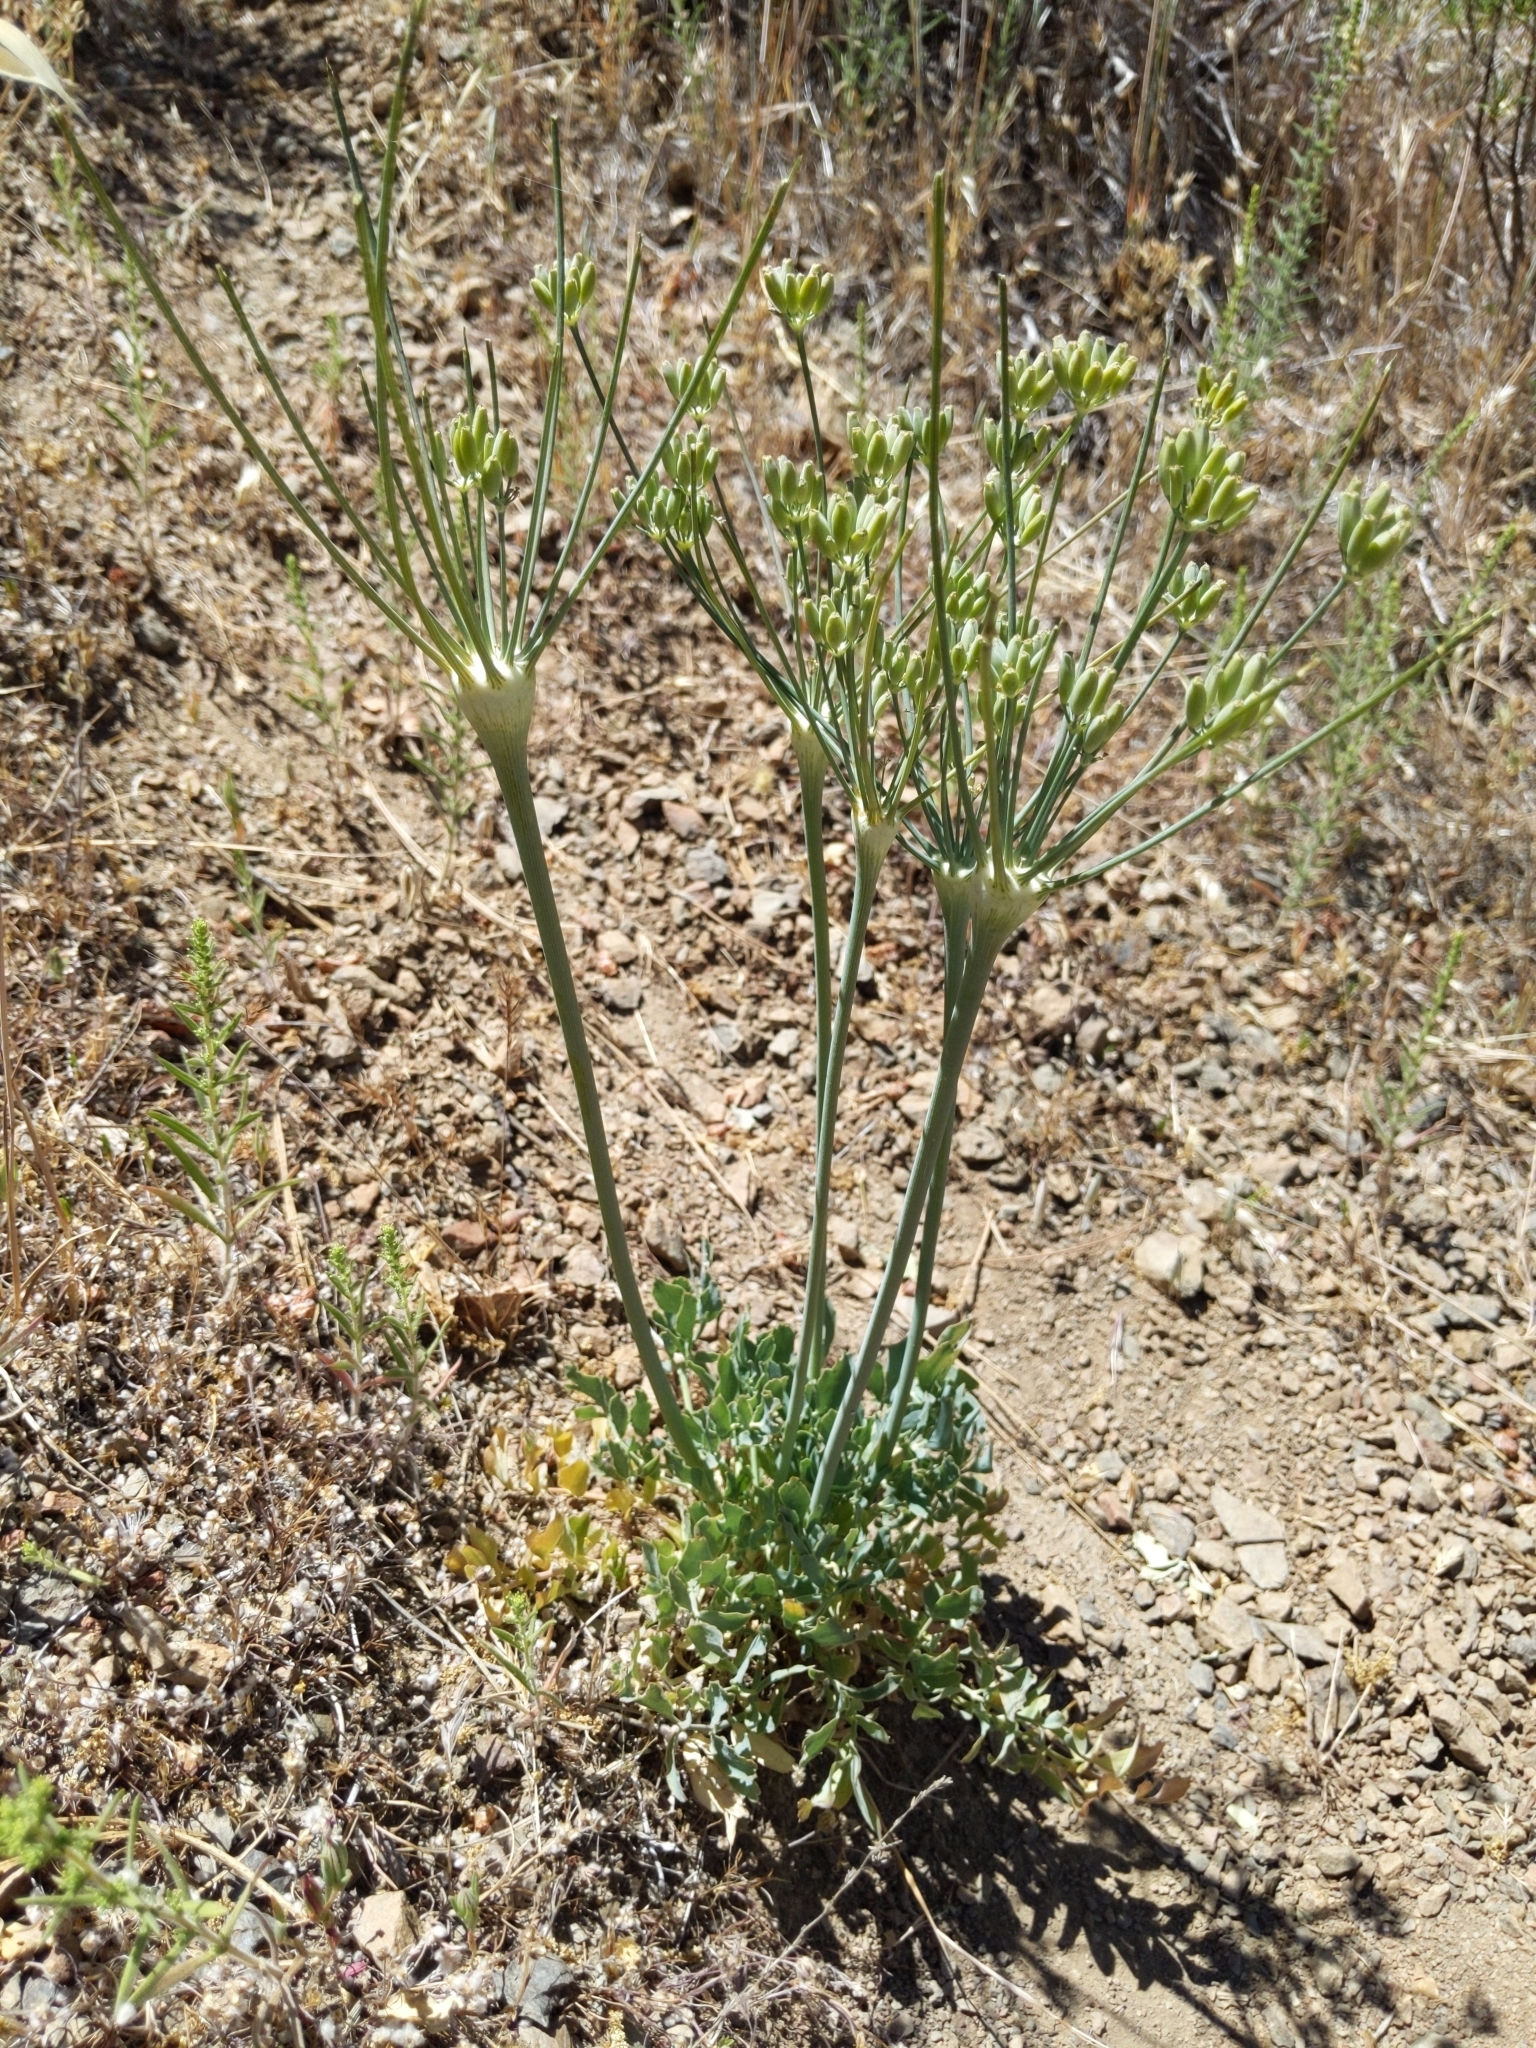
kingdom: Plantae
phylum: Tracheophyta
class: Magnoliopsida
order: Apiales
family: Apiaceae
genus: Lomatium
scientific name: Lomatium nudicaule
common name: Pestle lomatium
